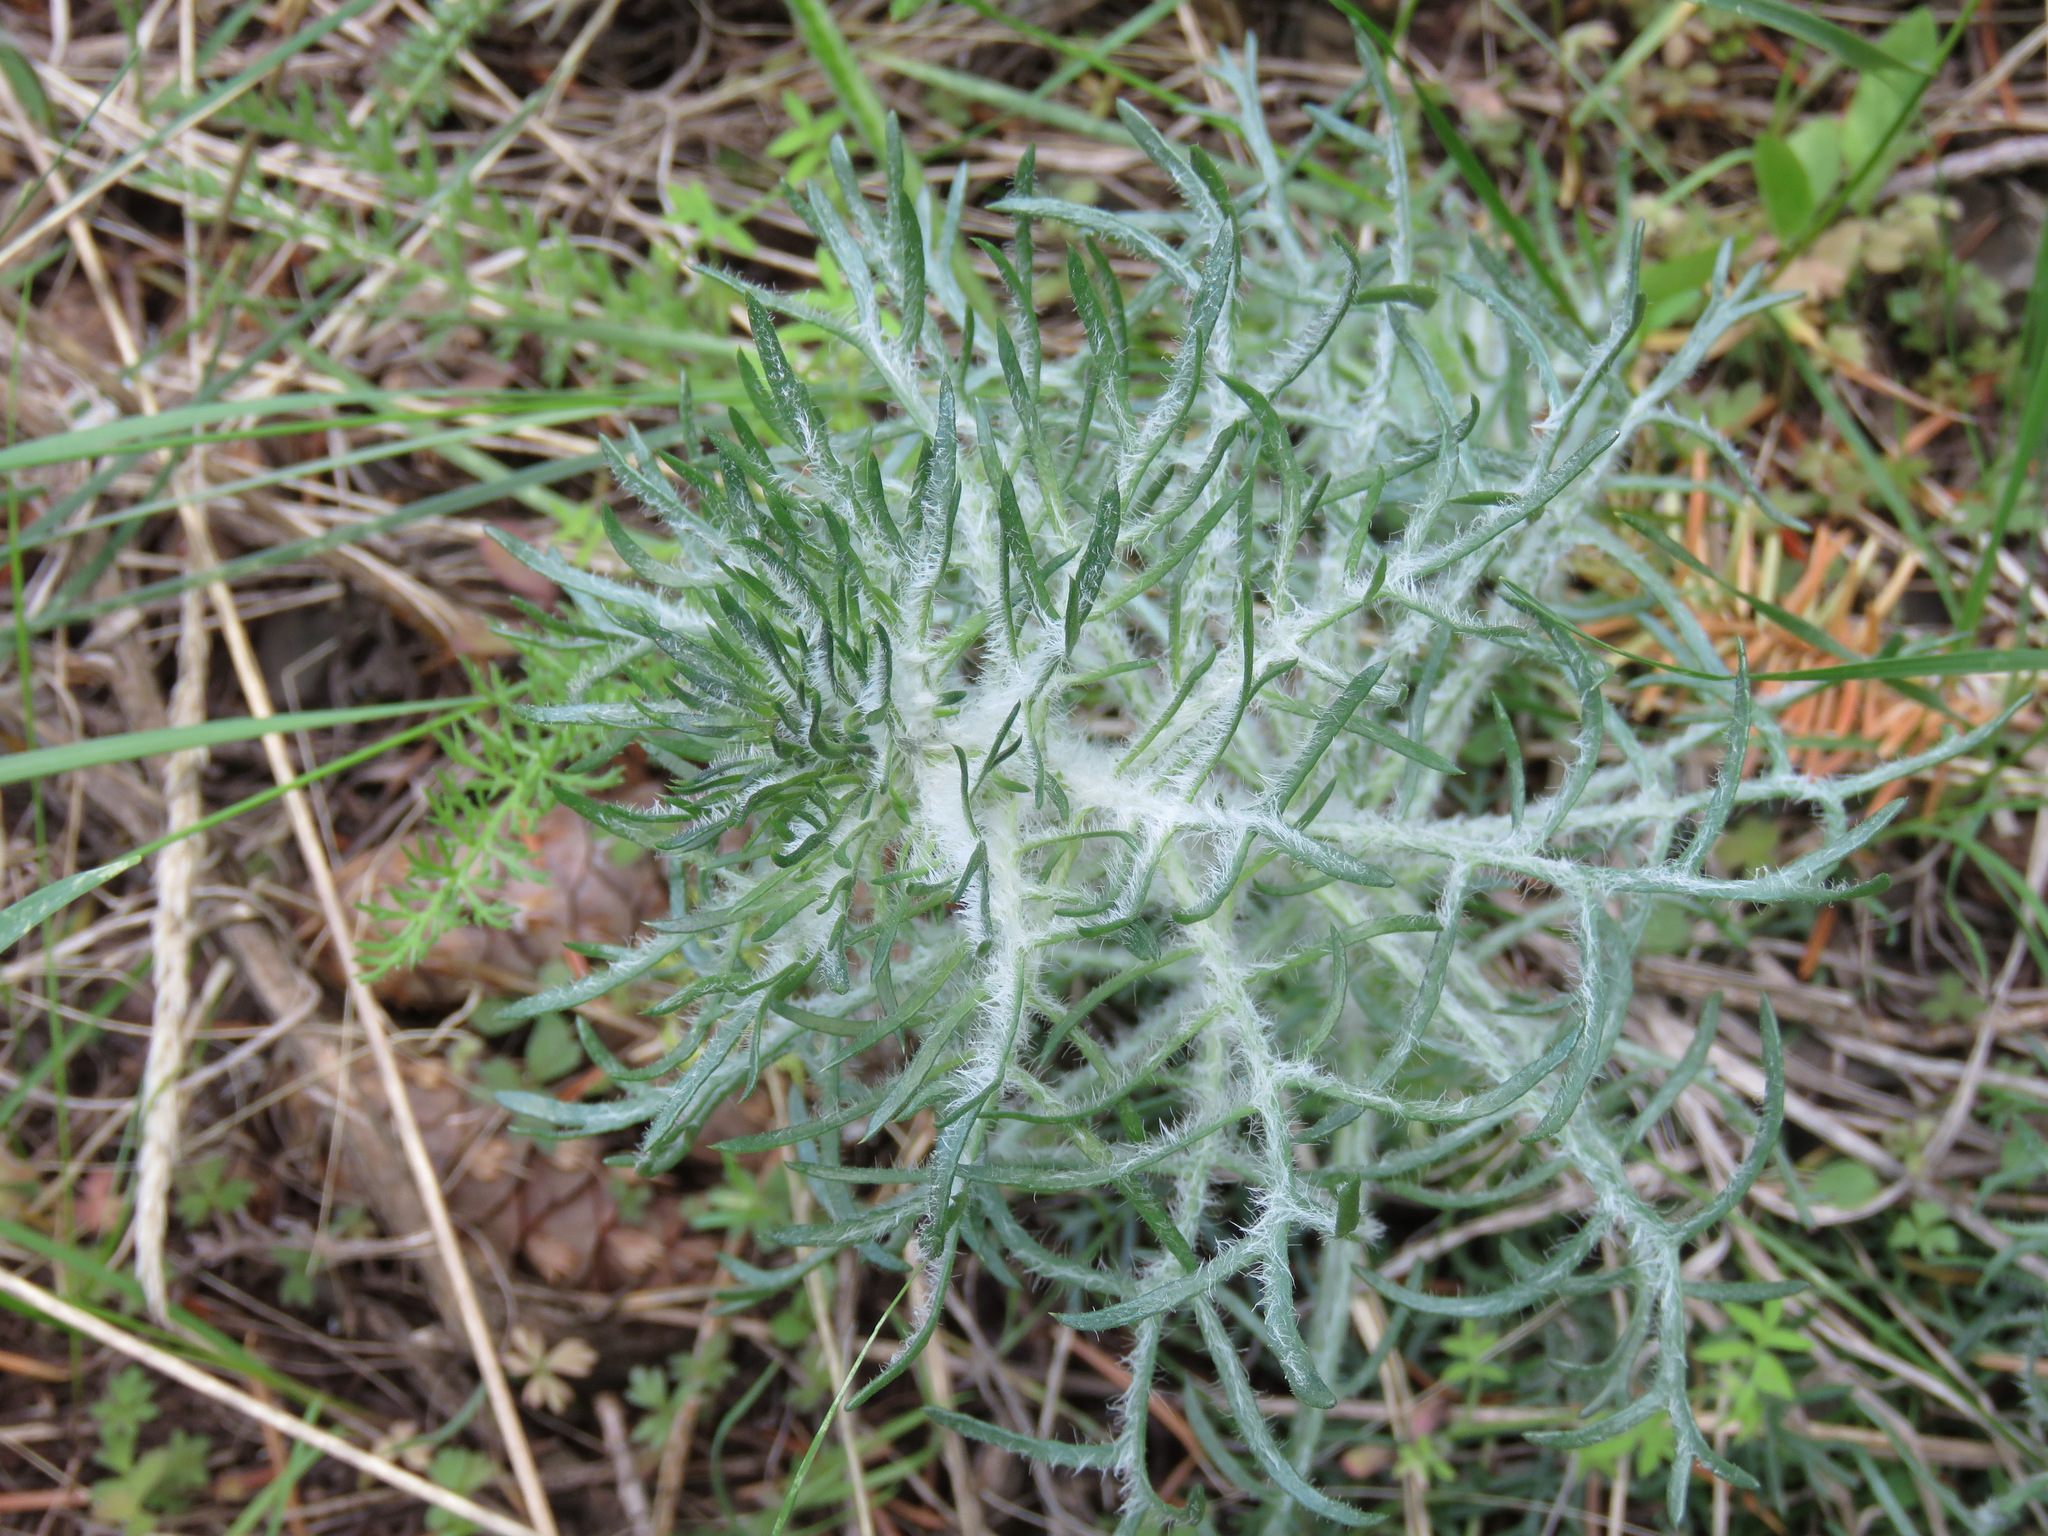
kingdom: Plantae
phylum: Tracheophyta
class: Magnoliopsida
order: Ericales
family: Polemoniaceae
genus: Ipomopsis
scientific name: Ipomopsis aggregata
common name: Scarlet gilia
